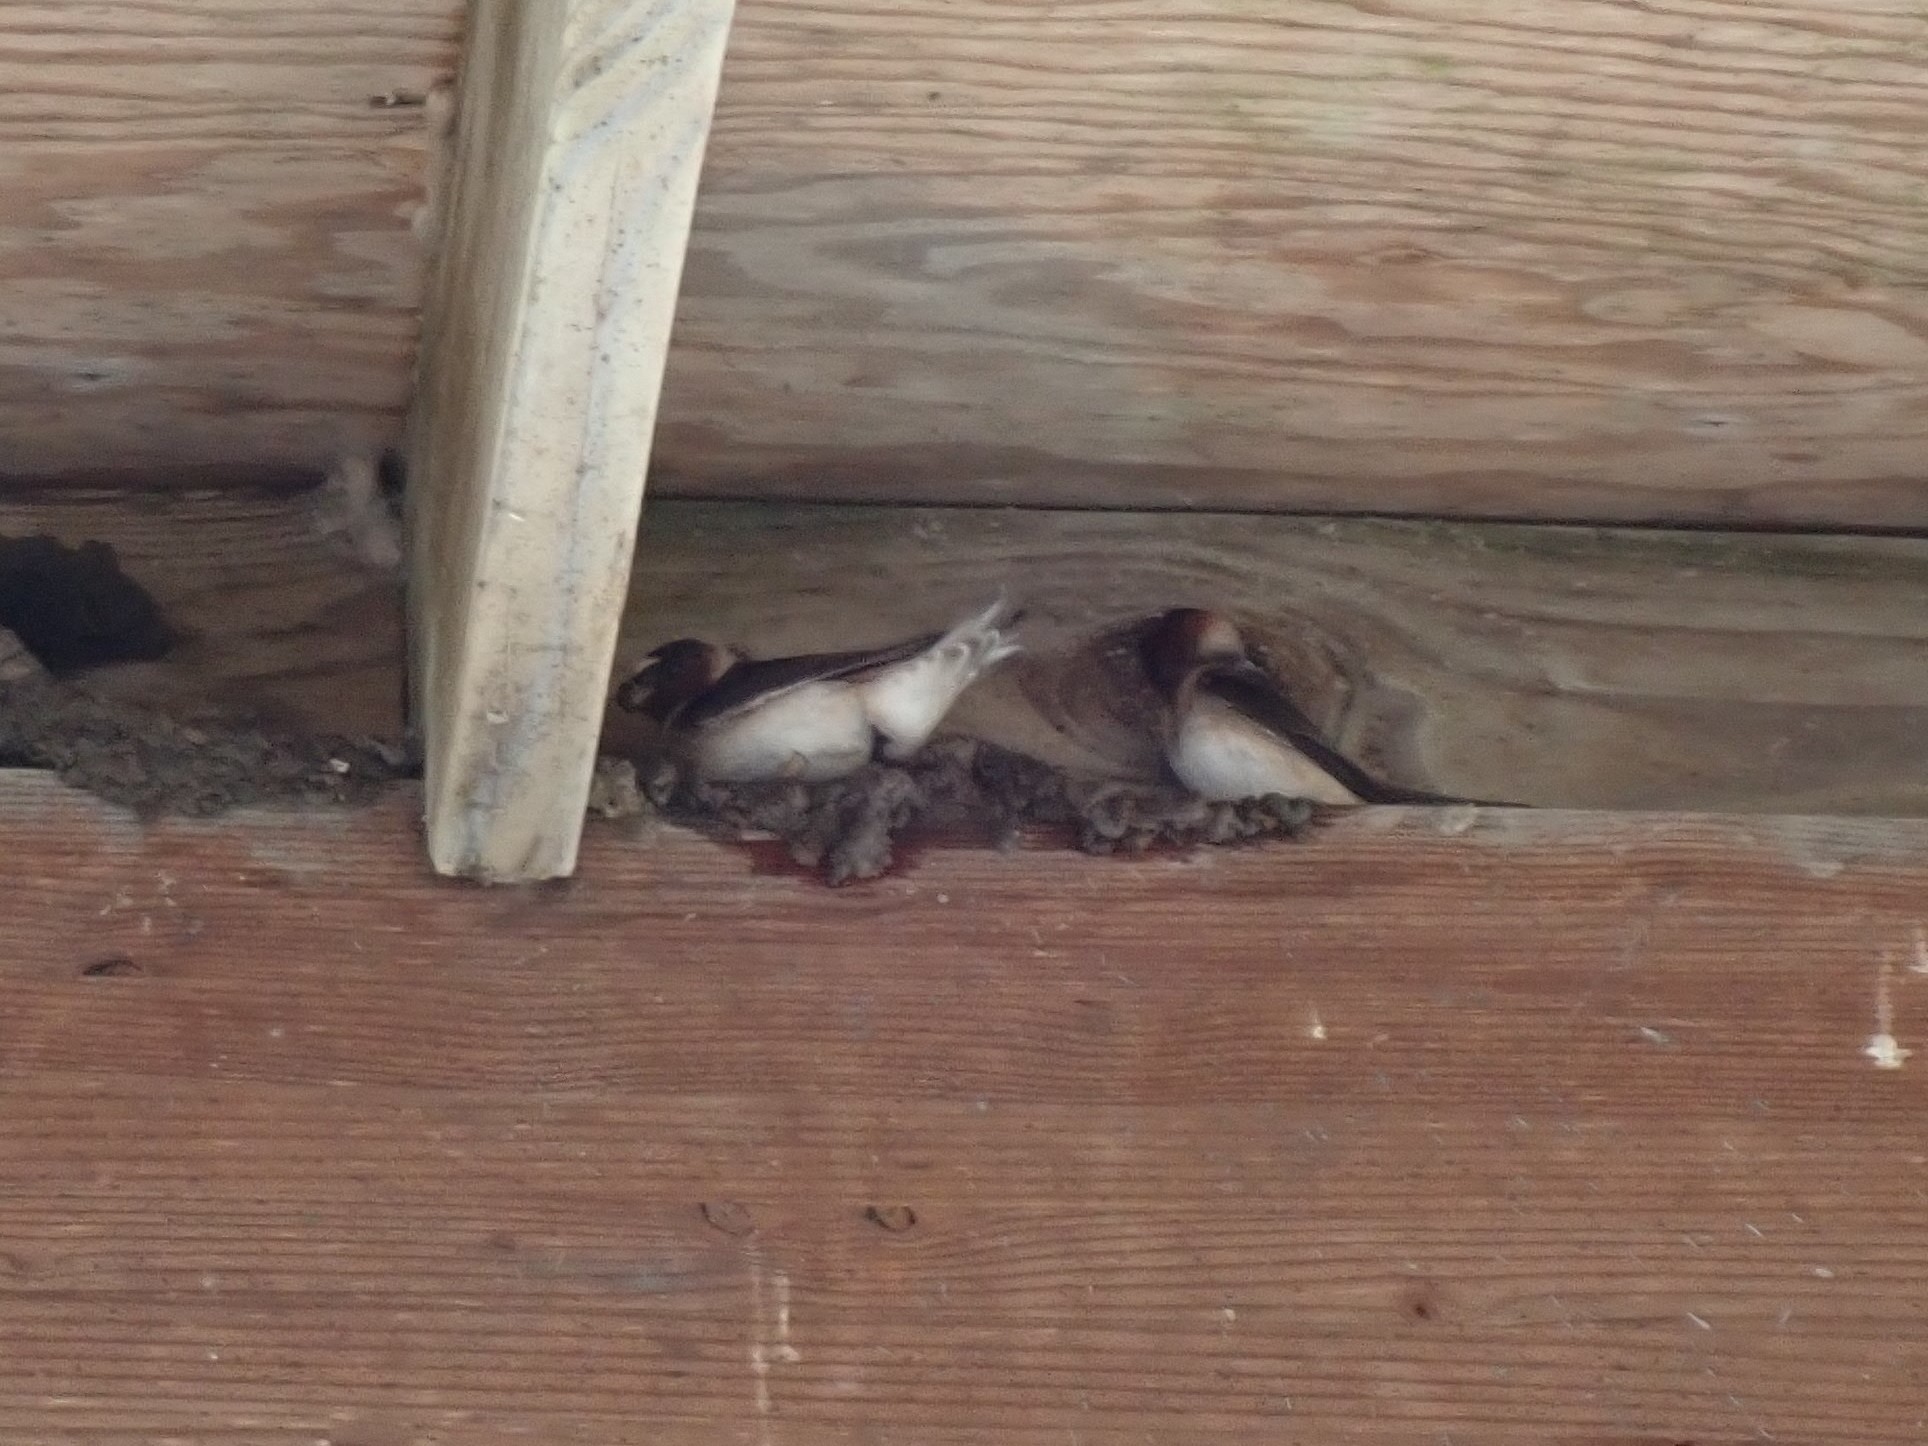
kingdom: Animalia
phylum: Chordata
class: Aves
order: Passeriformes
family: Hirundinidae
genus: Petrochelidon
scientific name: Petrochelidon pyrrhonota
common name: American cliff swallow
